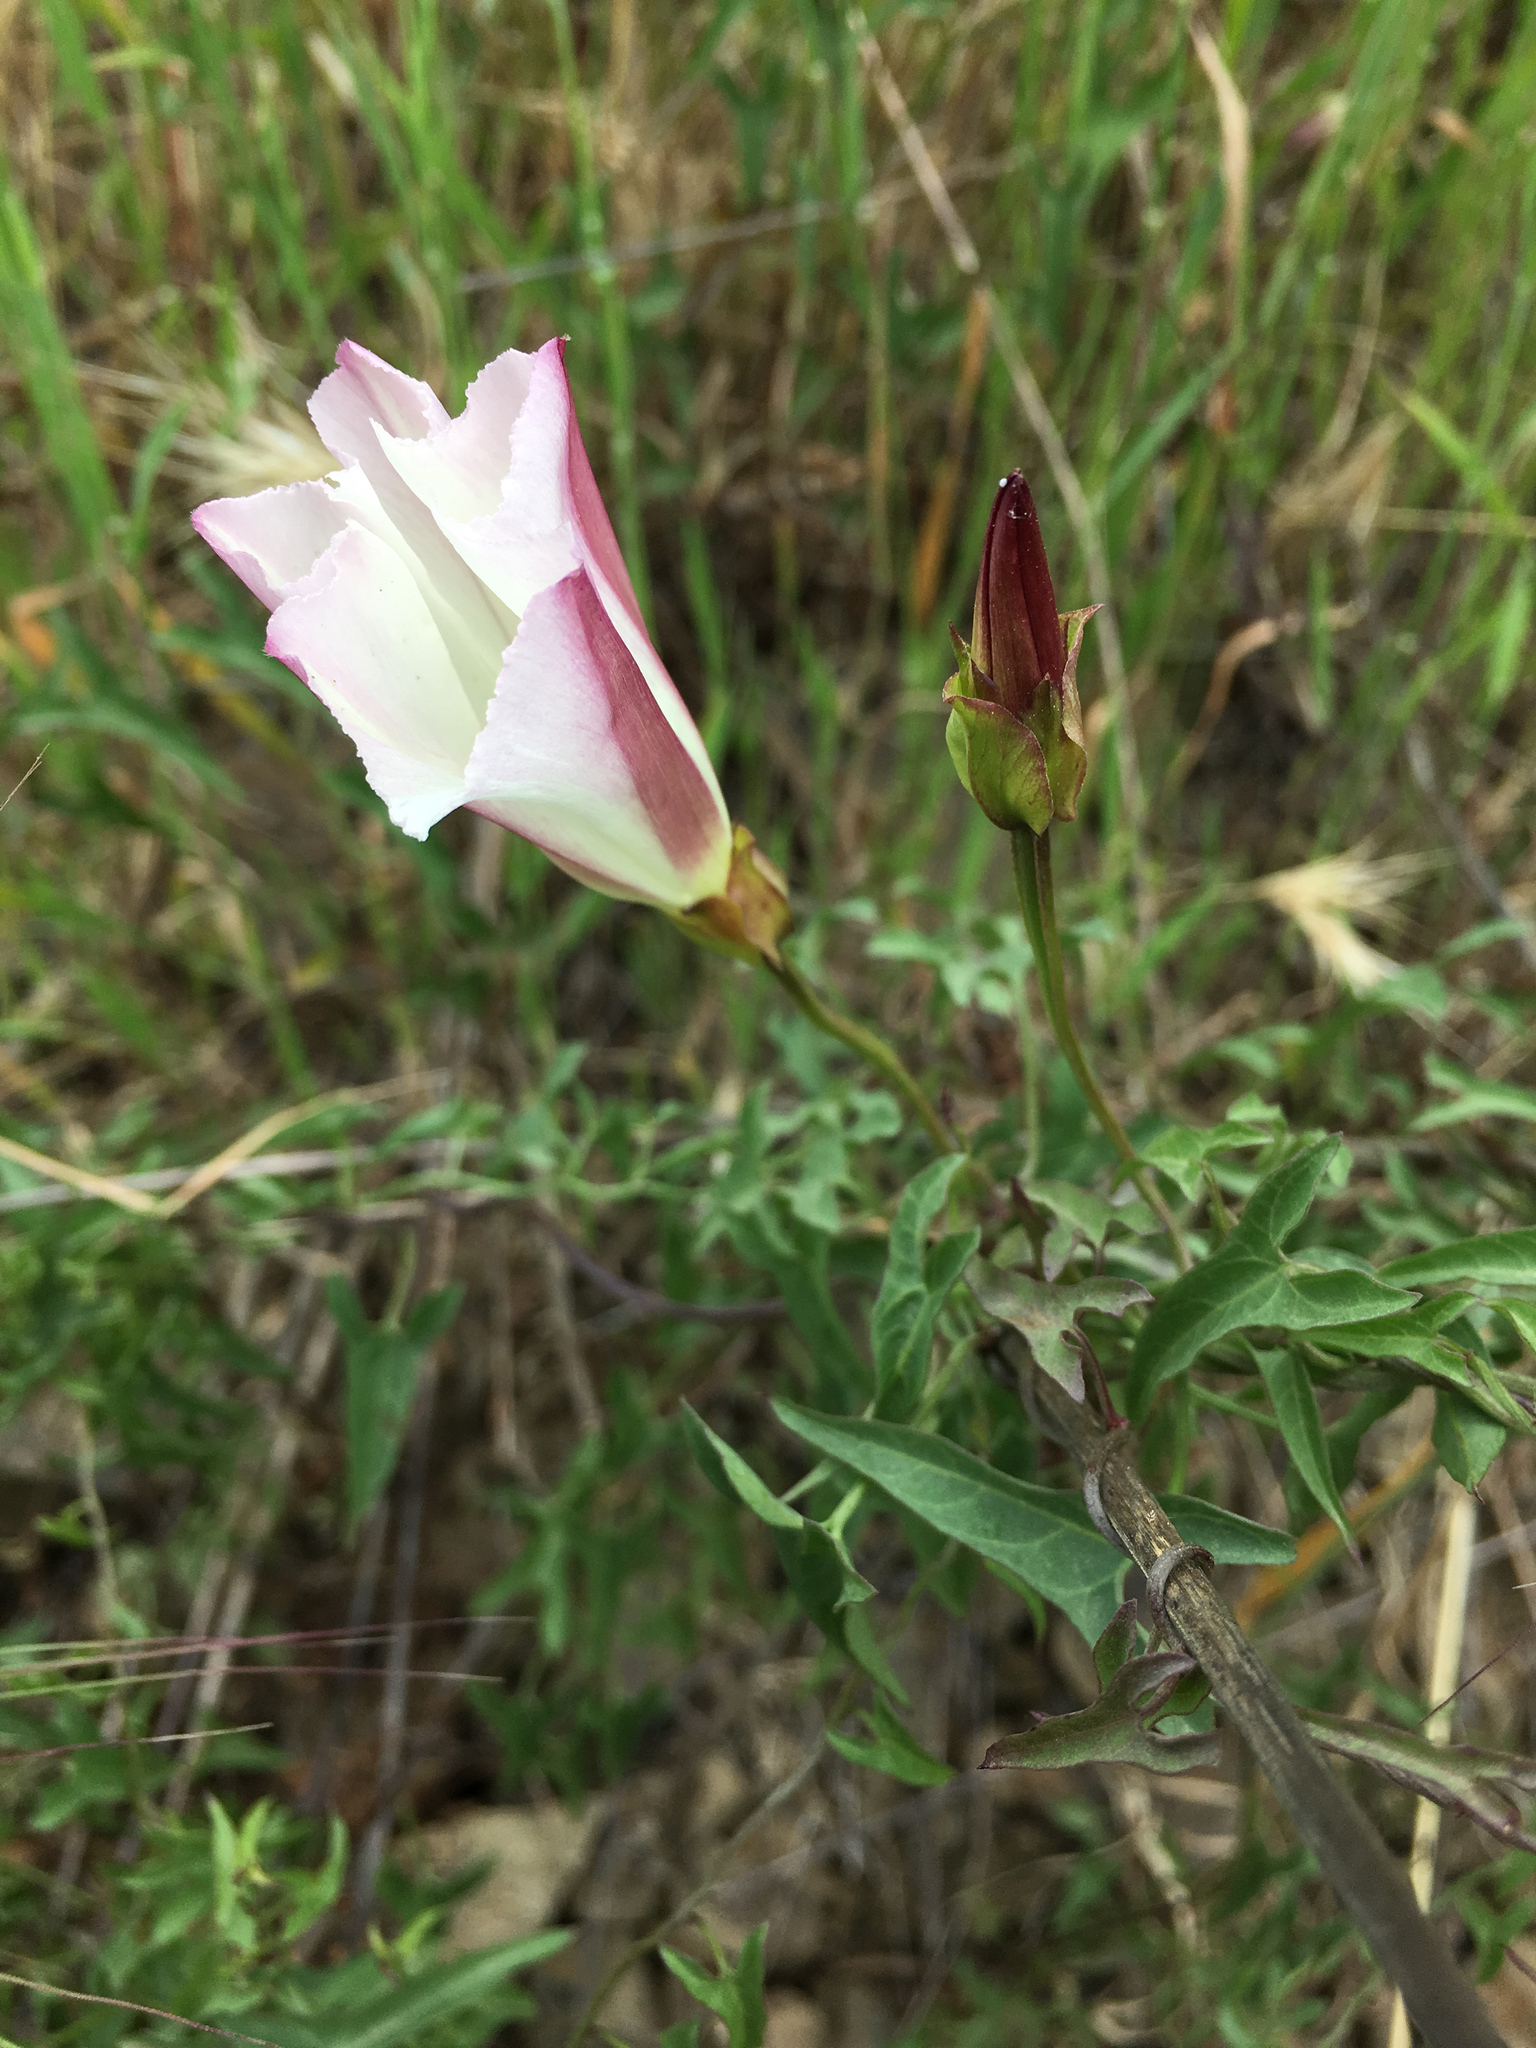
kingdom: Plantae
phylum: Tracheophyta
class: Magnoliopsida
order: Solanales
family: Convolvulaceae
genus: Calystegia
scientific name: Calystegia macrostegia
